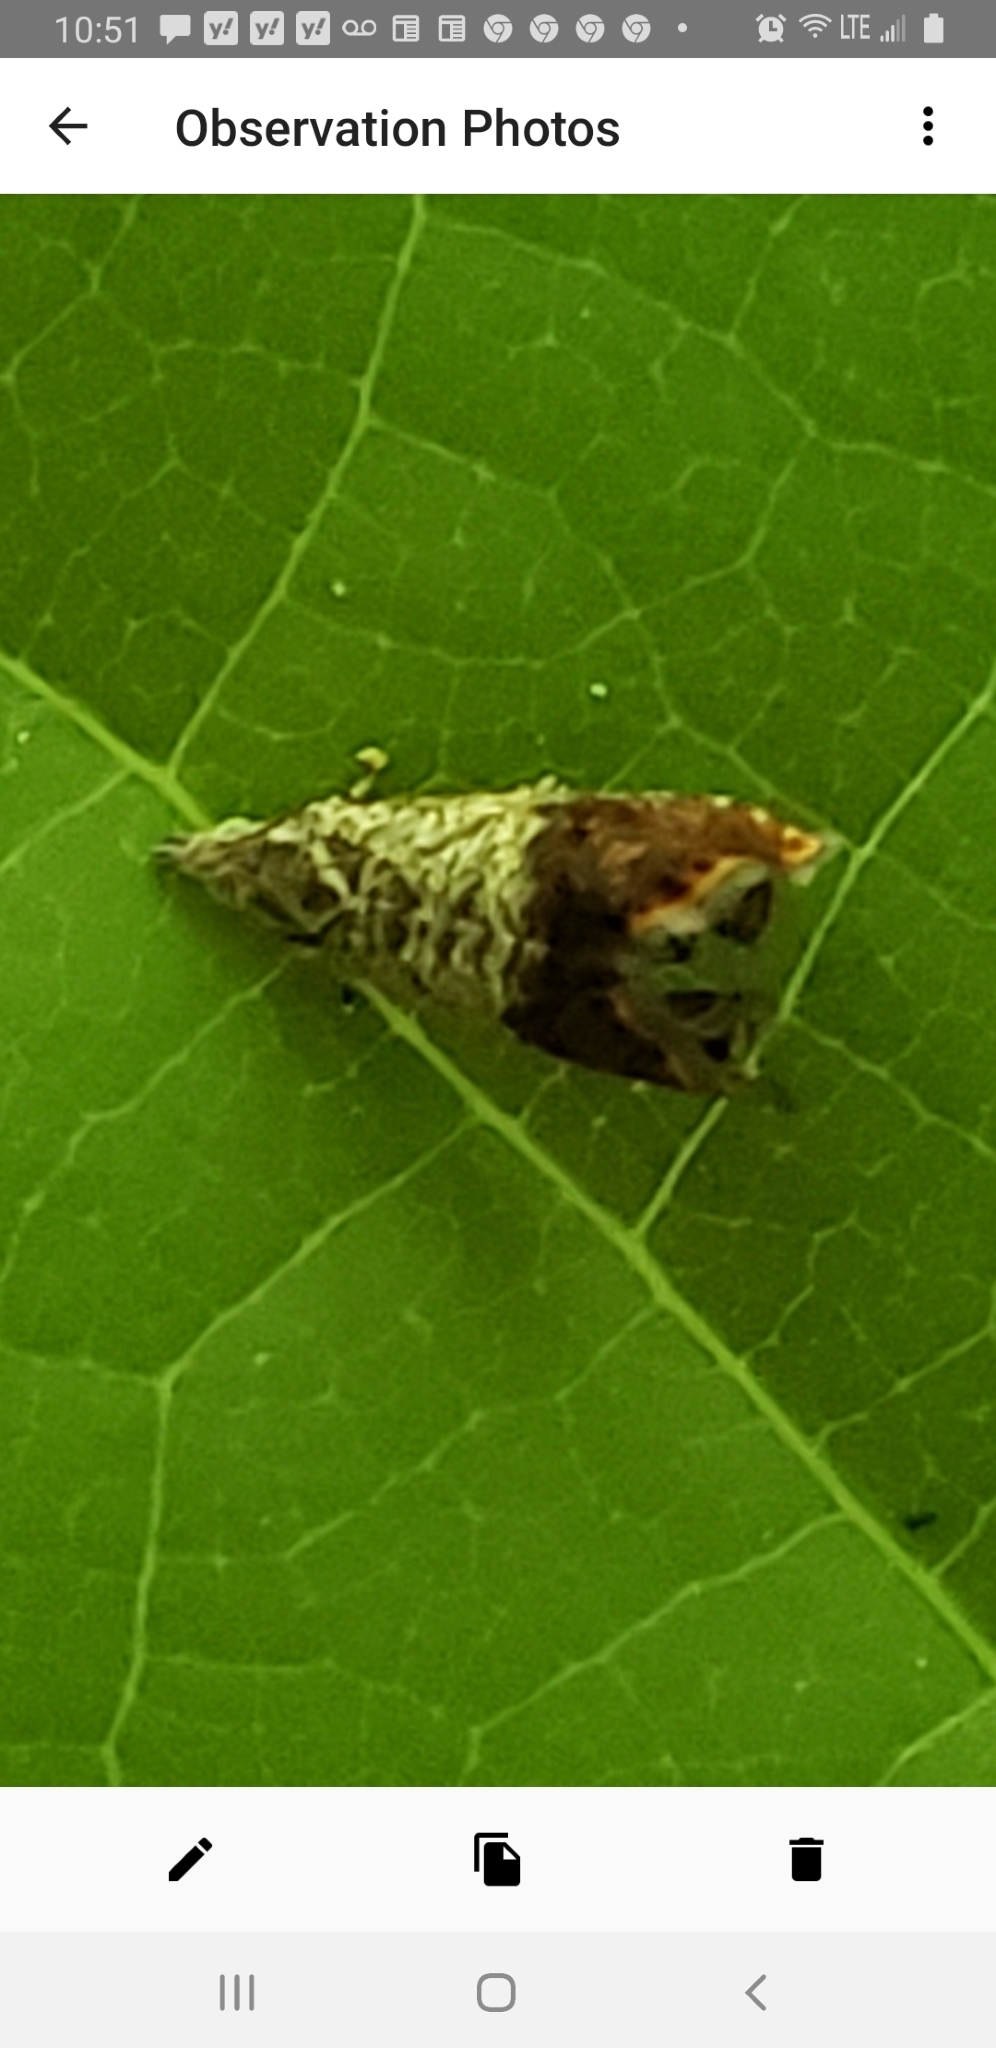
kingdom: Animalia
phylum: Arthropoda
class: Insecta
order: Lepidoptera
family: Tortricidae
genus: Talponia
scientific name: Talponia plummeriana
